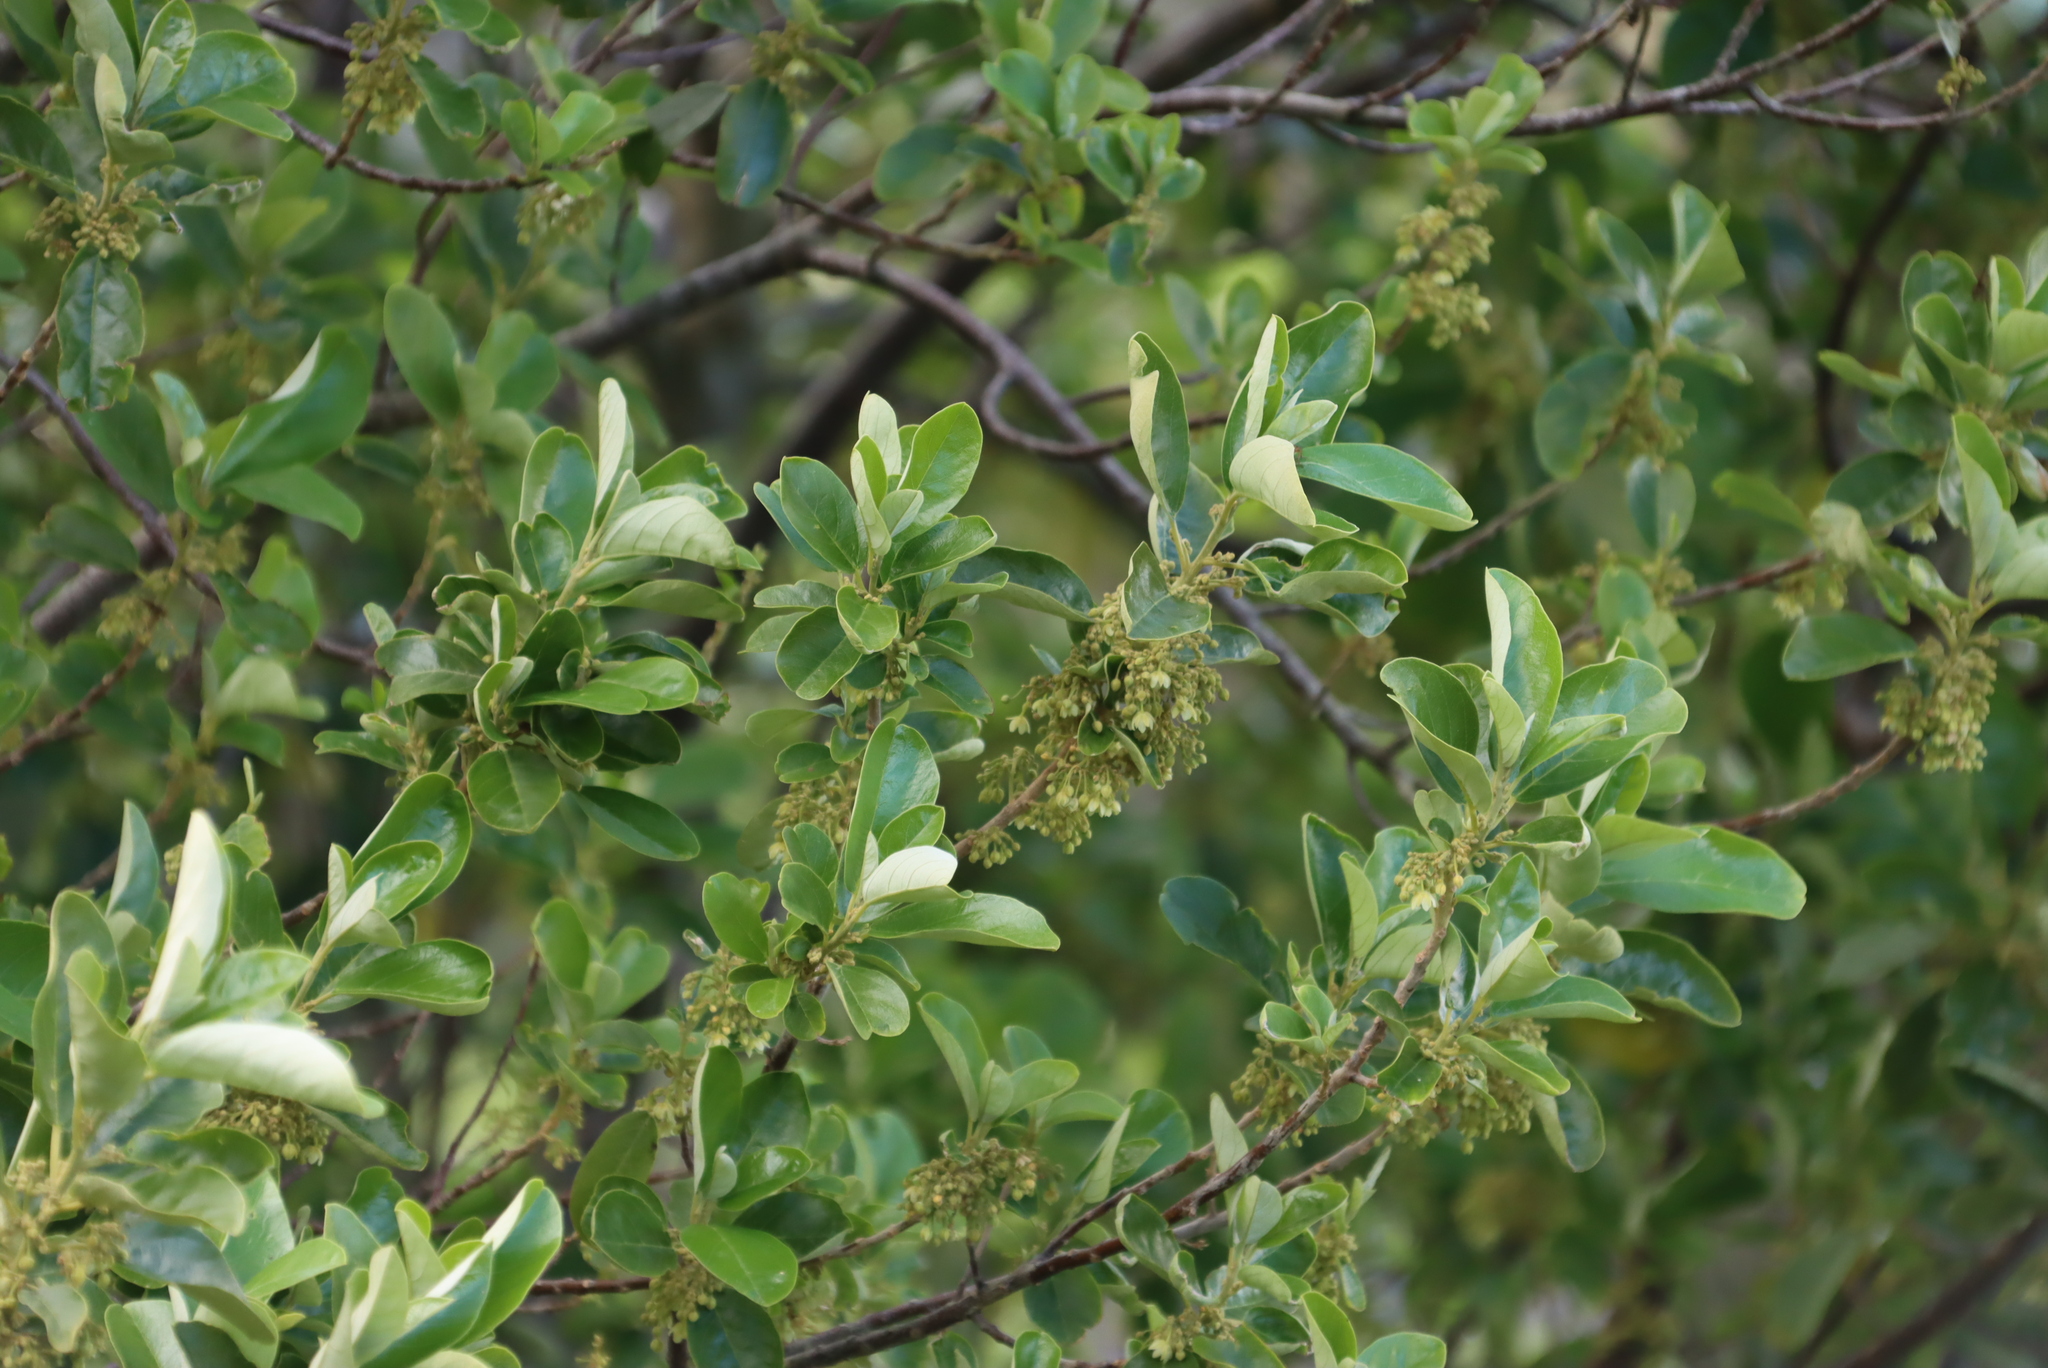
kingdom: Plantae
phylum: Tracheophyta
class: Magnoliopsida
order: Malpighiales
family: Achariaceae
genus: Kiggelaria
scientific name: Kiggelaria africana
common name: Wild peach
